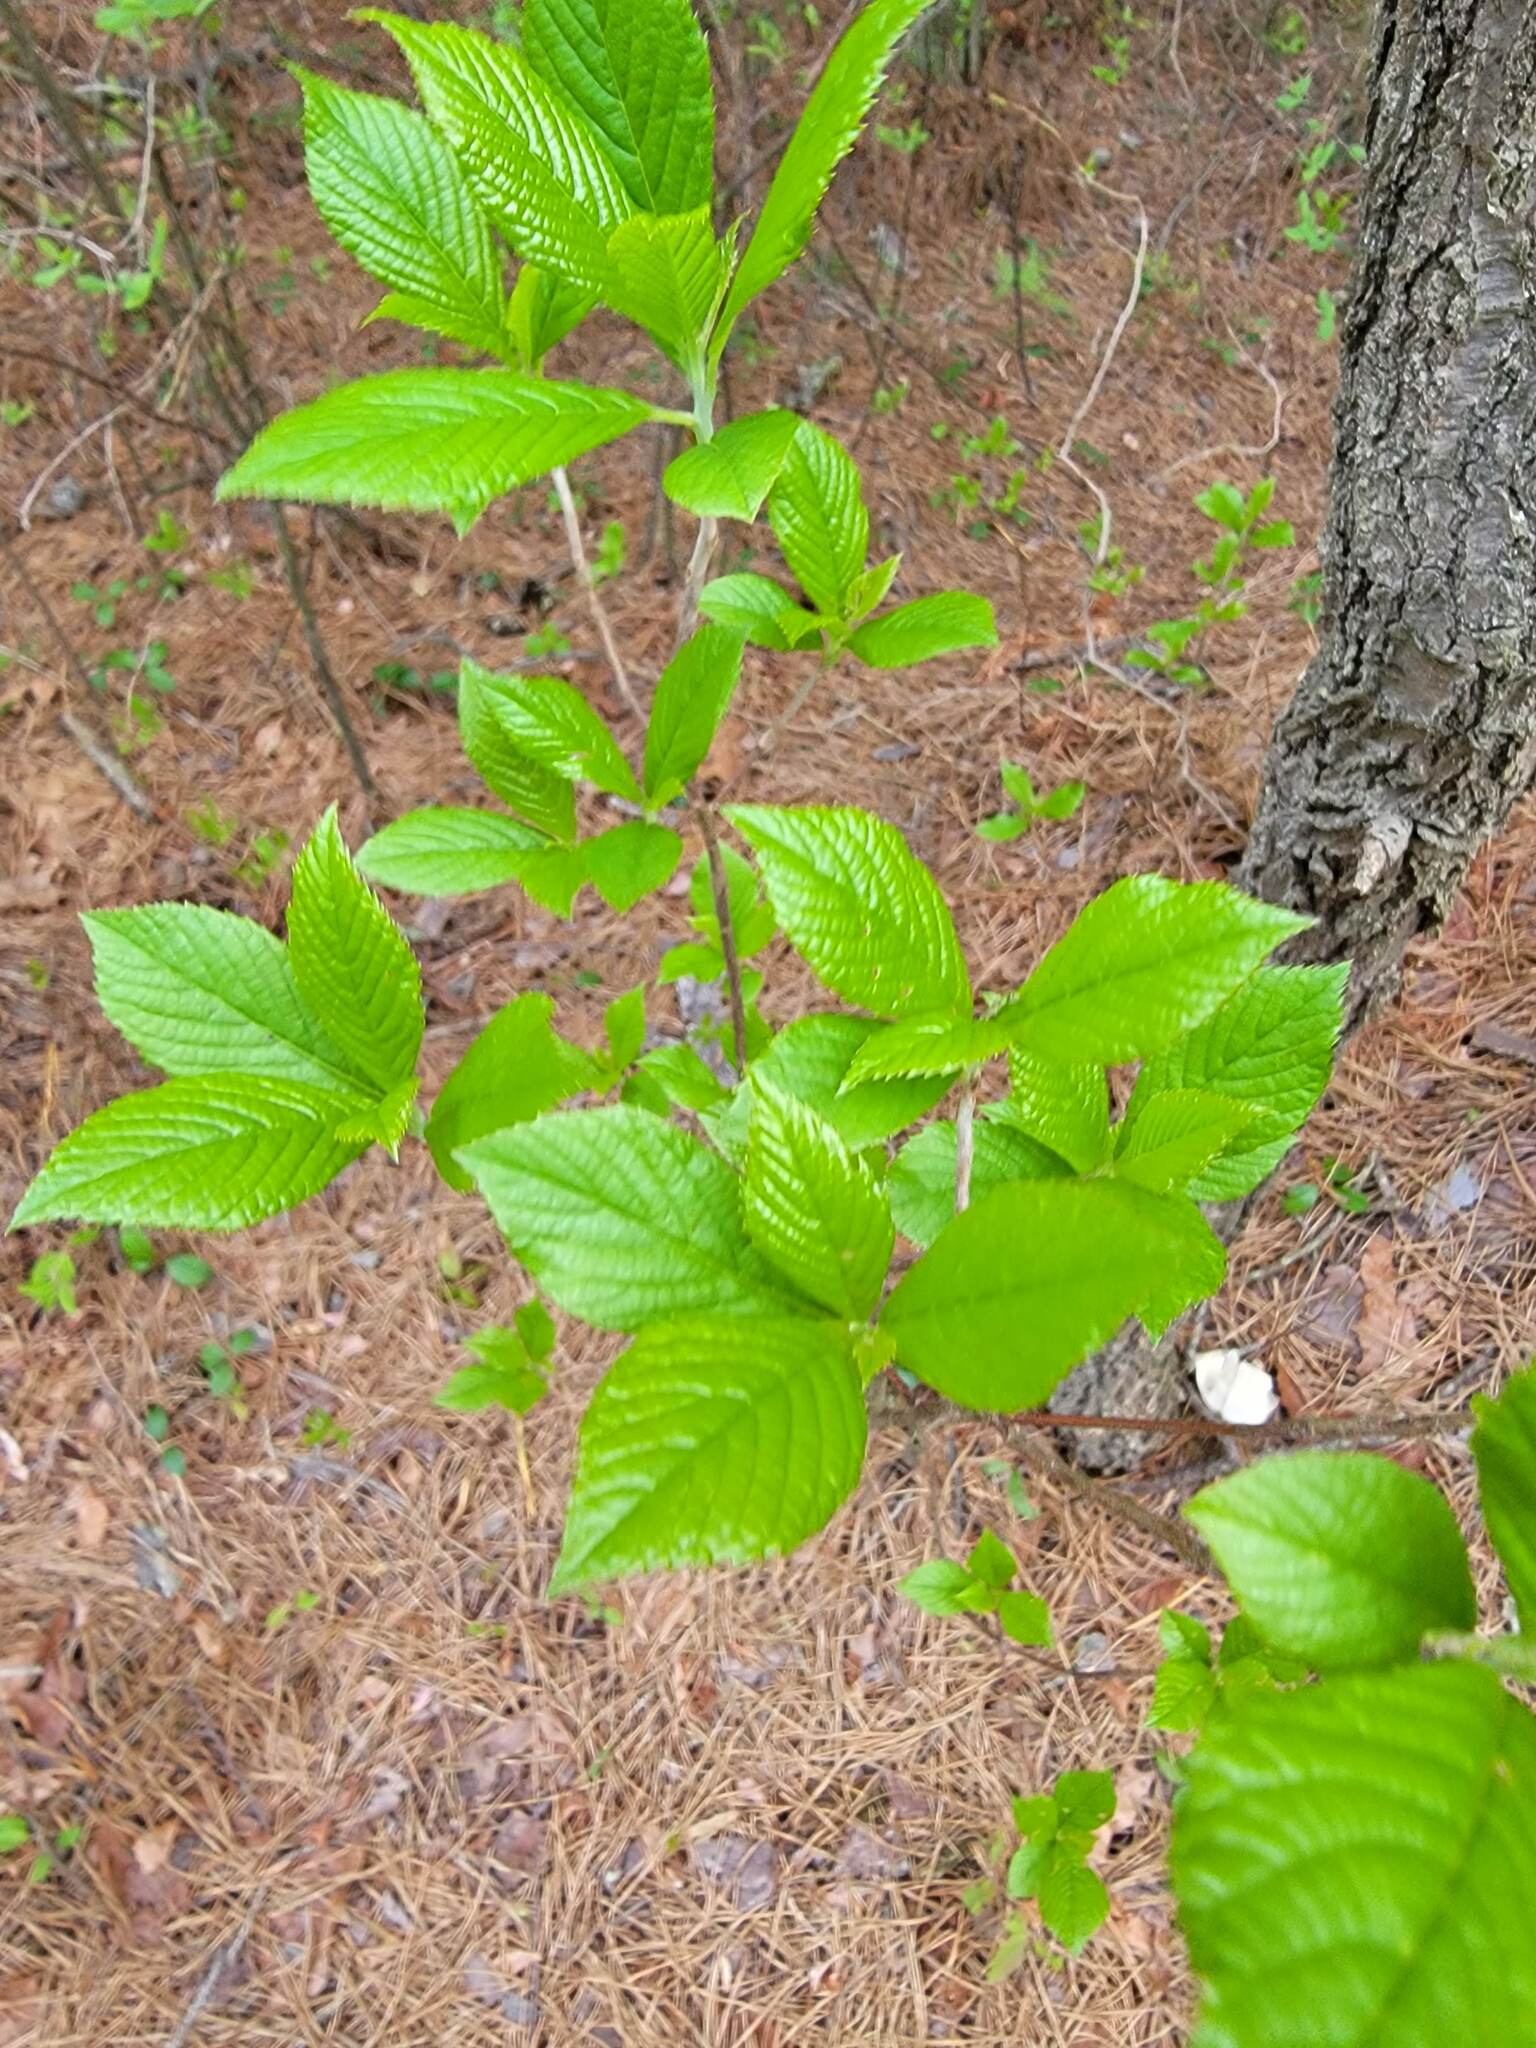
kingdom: Plantae
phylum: Tracheophyta
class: Magnoliopsida
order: Ericales
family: Clethraceae
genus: Clethra
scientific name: Clethra alnifolia
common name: Sweet pepperbush
